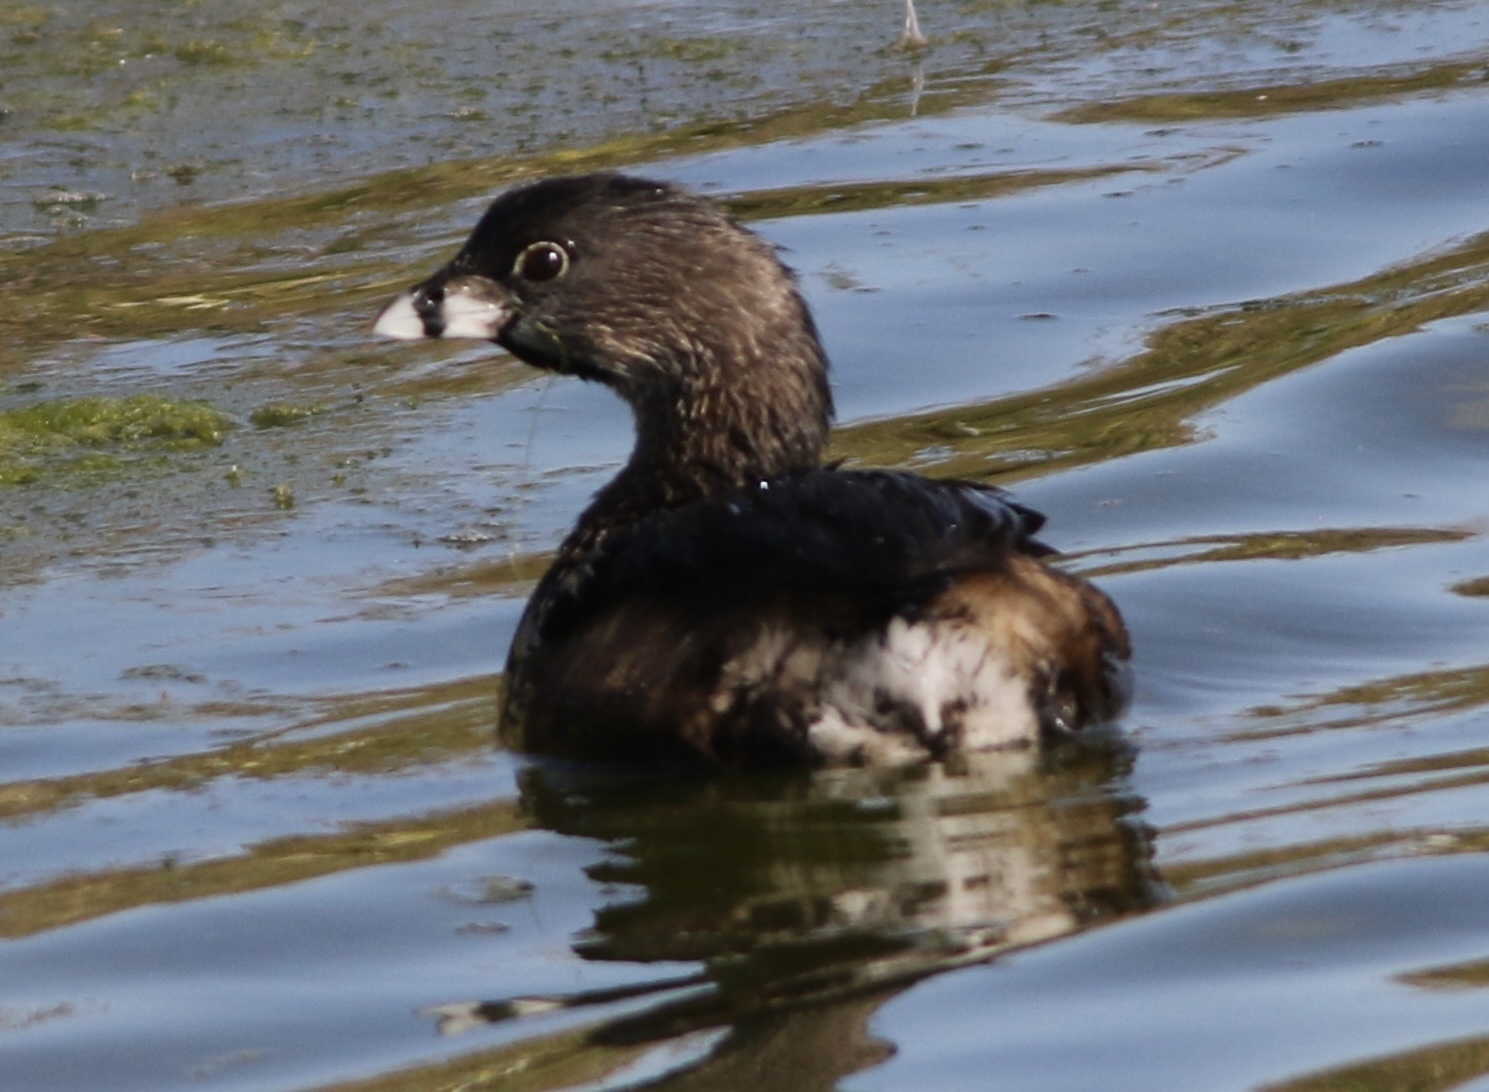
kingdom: Animalia
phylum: Chordata
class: Aves
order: Podicipediformes
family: Podicipedidae
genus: Podilymbus
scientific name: Podilymbus podiceps
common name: Pied-billed grebe
